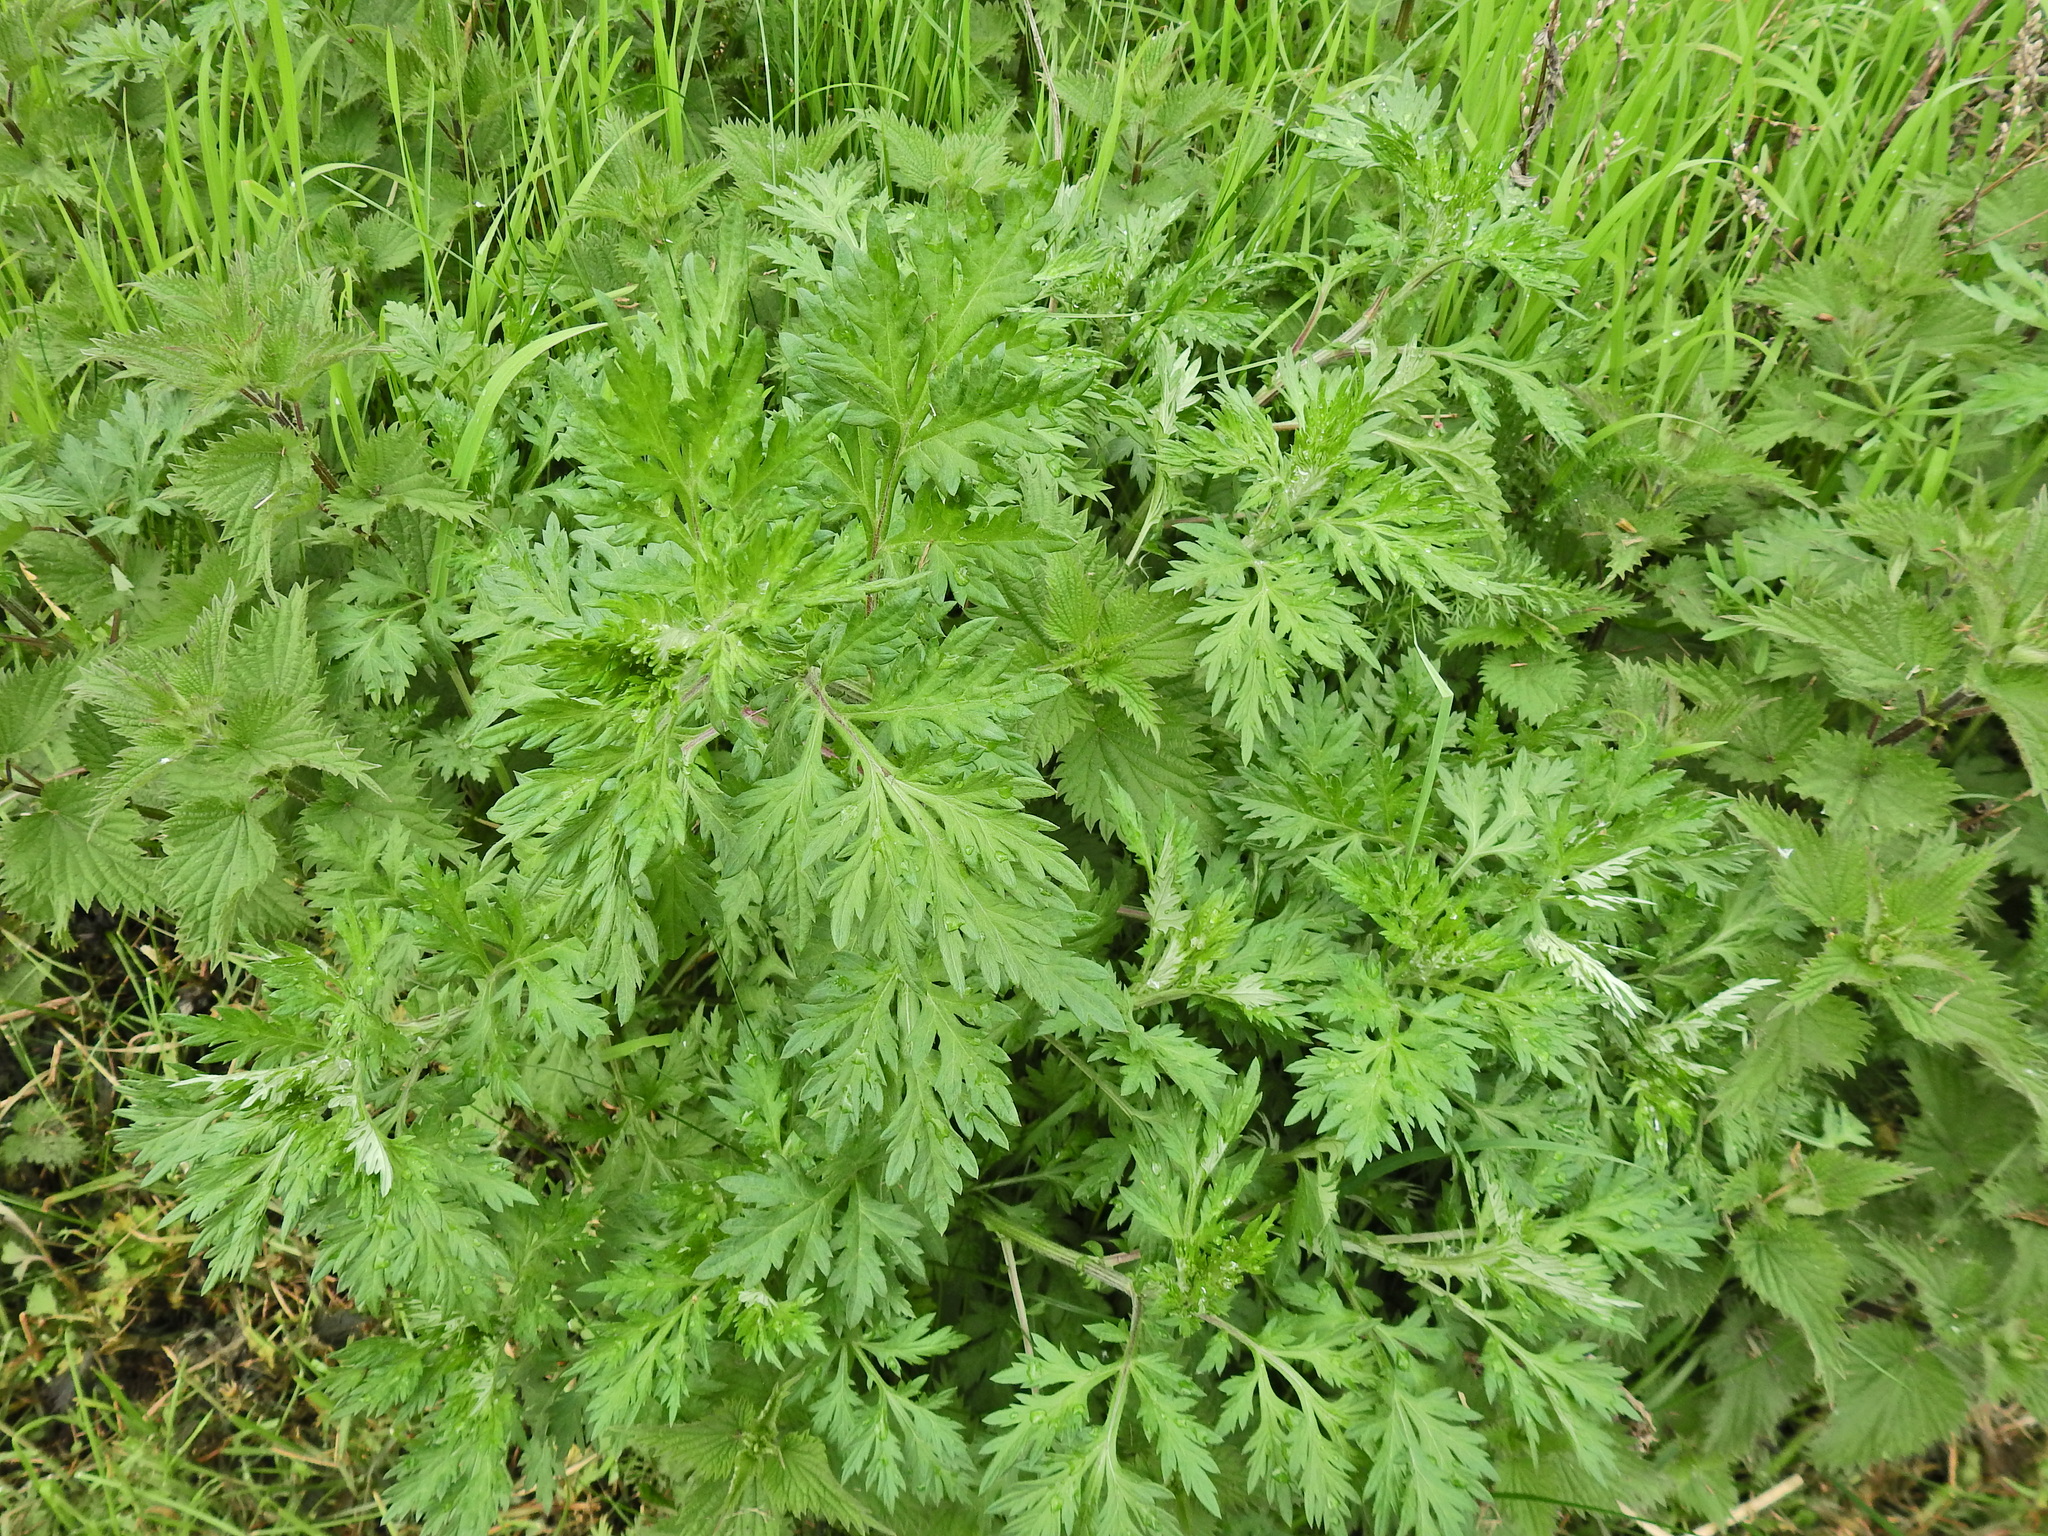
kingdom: Plantae
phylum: Tracheophyta
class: Magnoliopsida
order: Asterales
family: Asteraceae
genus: Artemisia
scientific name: Artemisia vulgaris
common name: Mugwort
